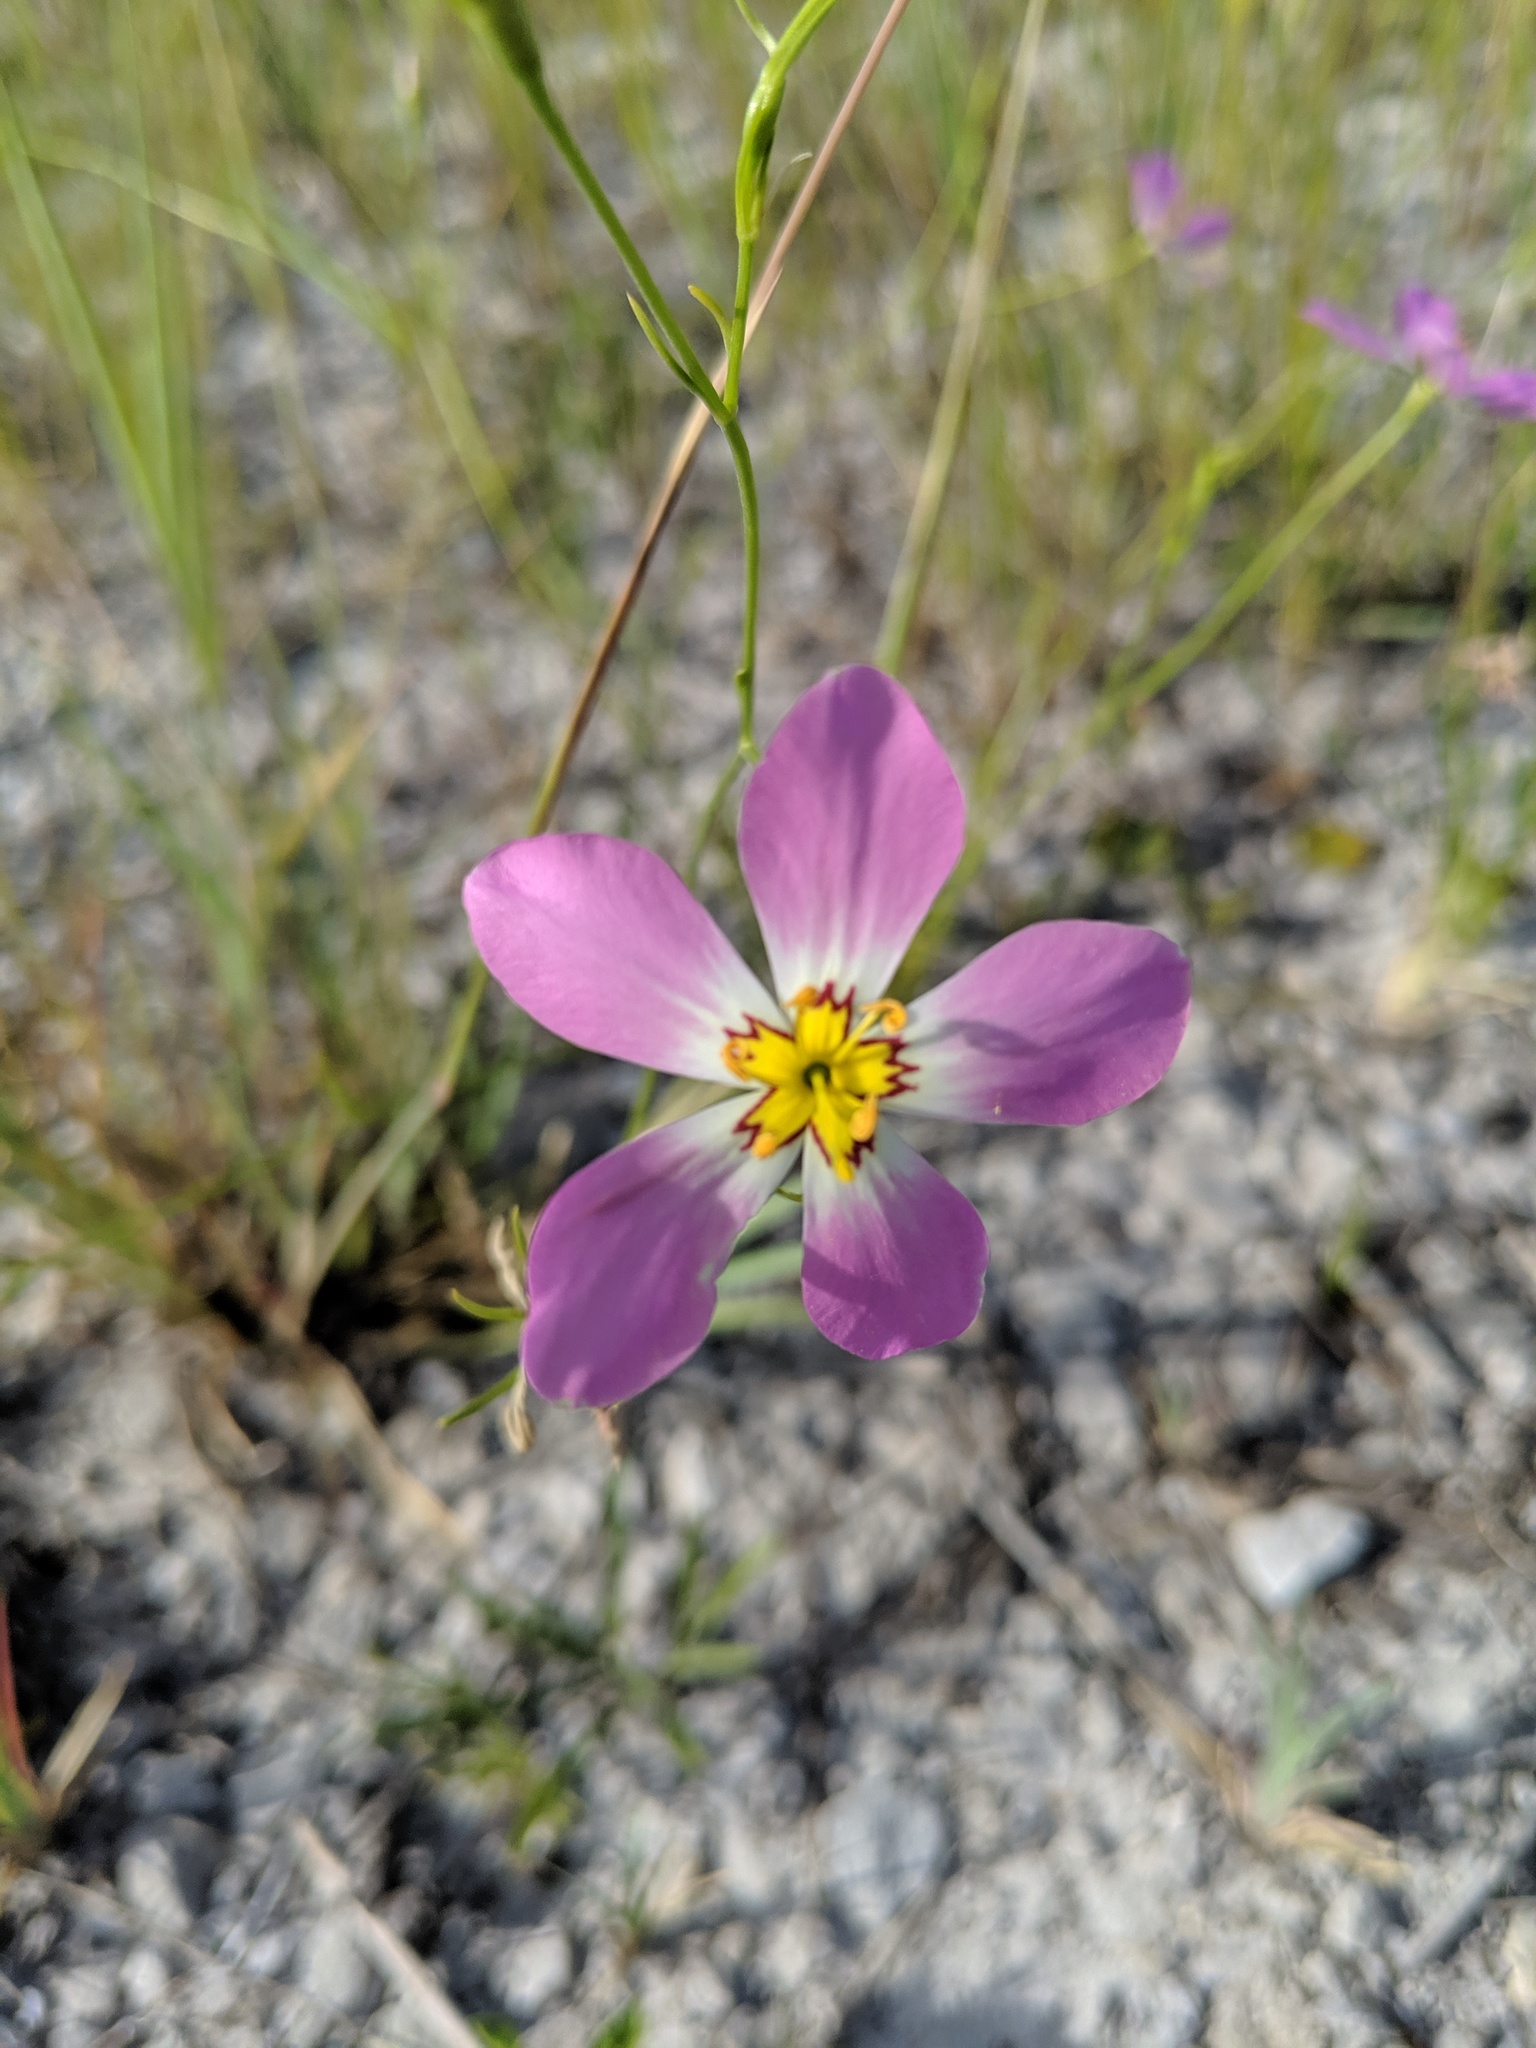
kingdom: Plantae
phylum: Tracheophyta
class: Magnoliopsida
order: Gentianales
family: Gentianaceae
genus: Sabatia
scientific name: Sabatia stellaris
